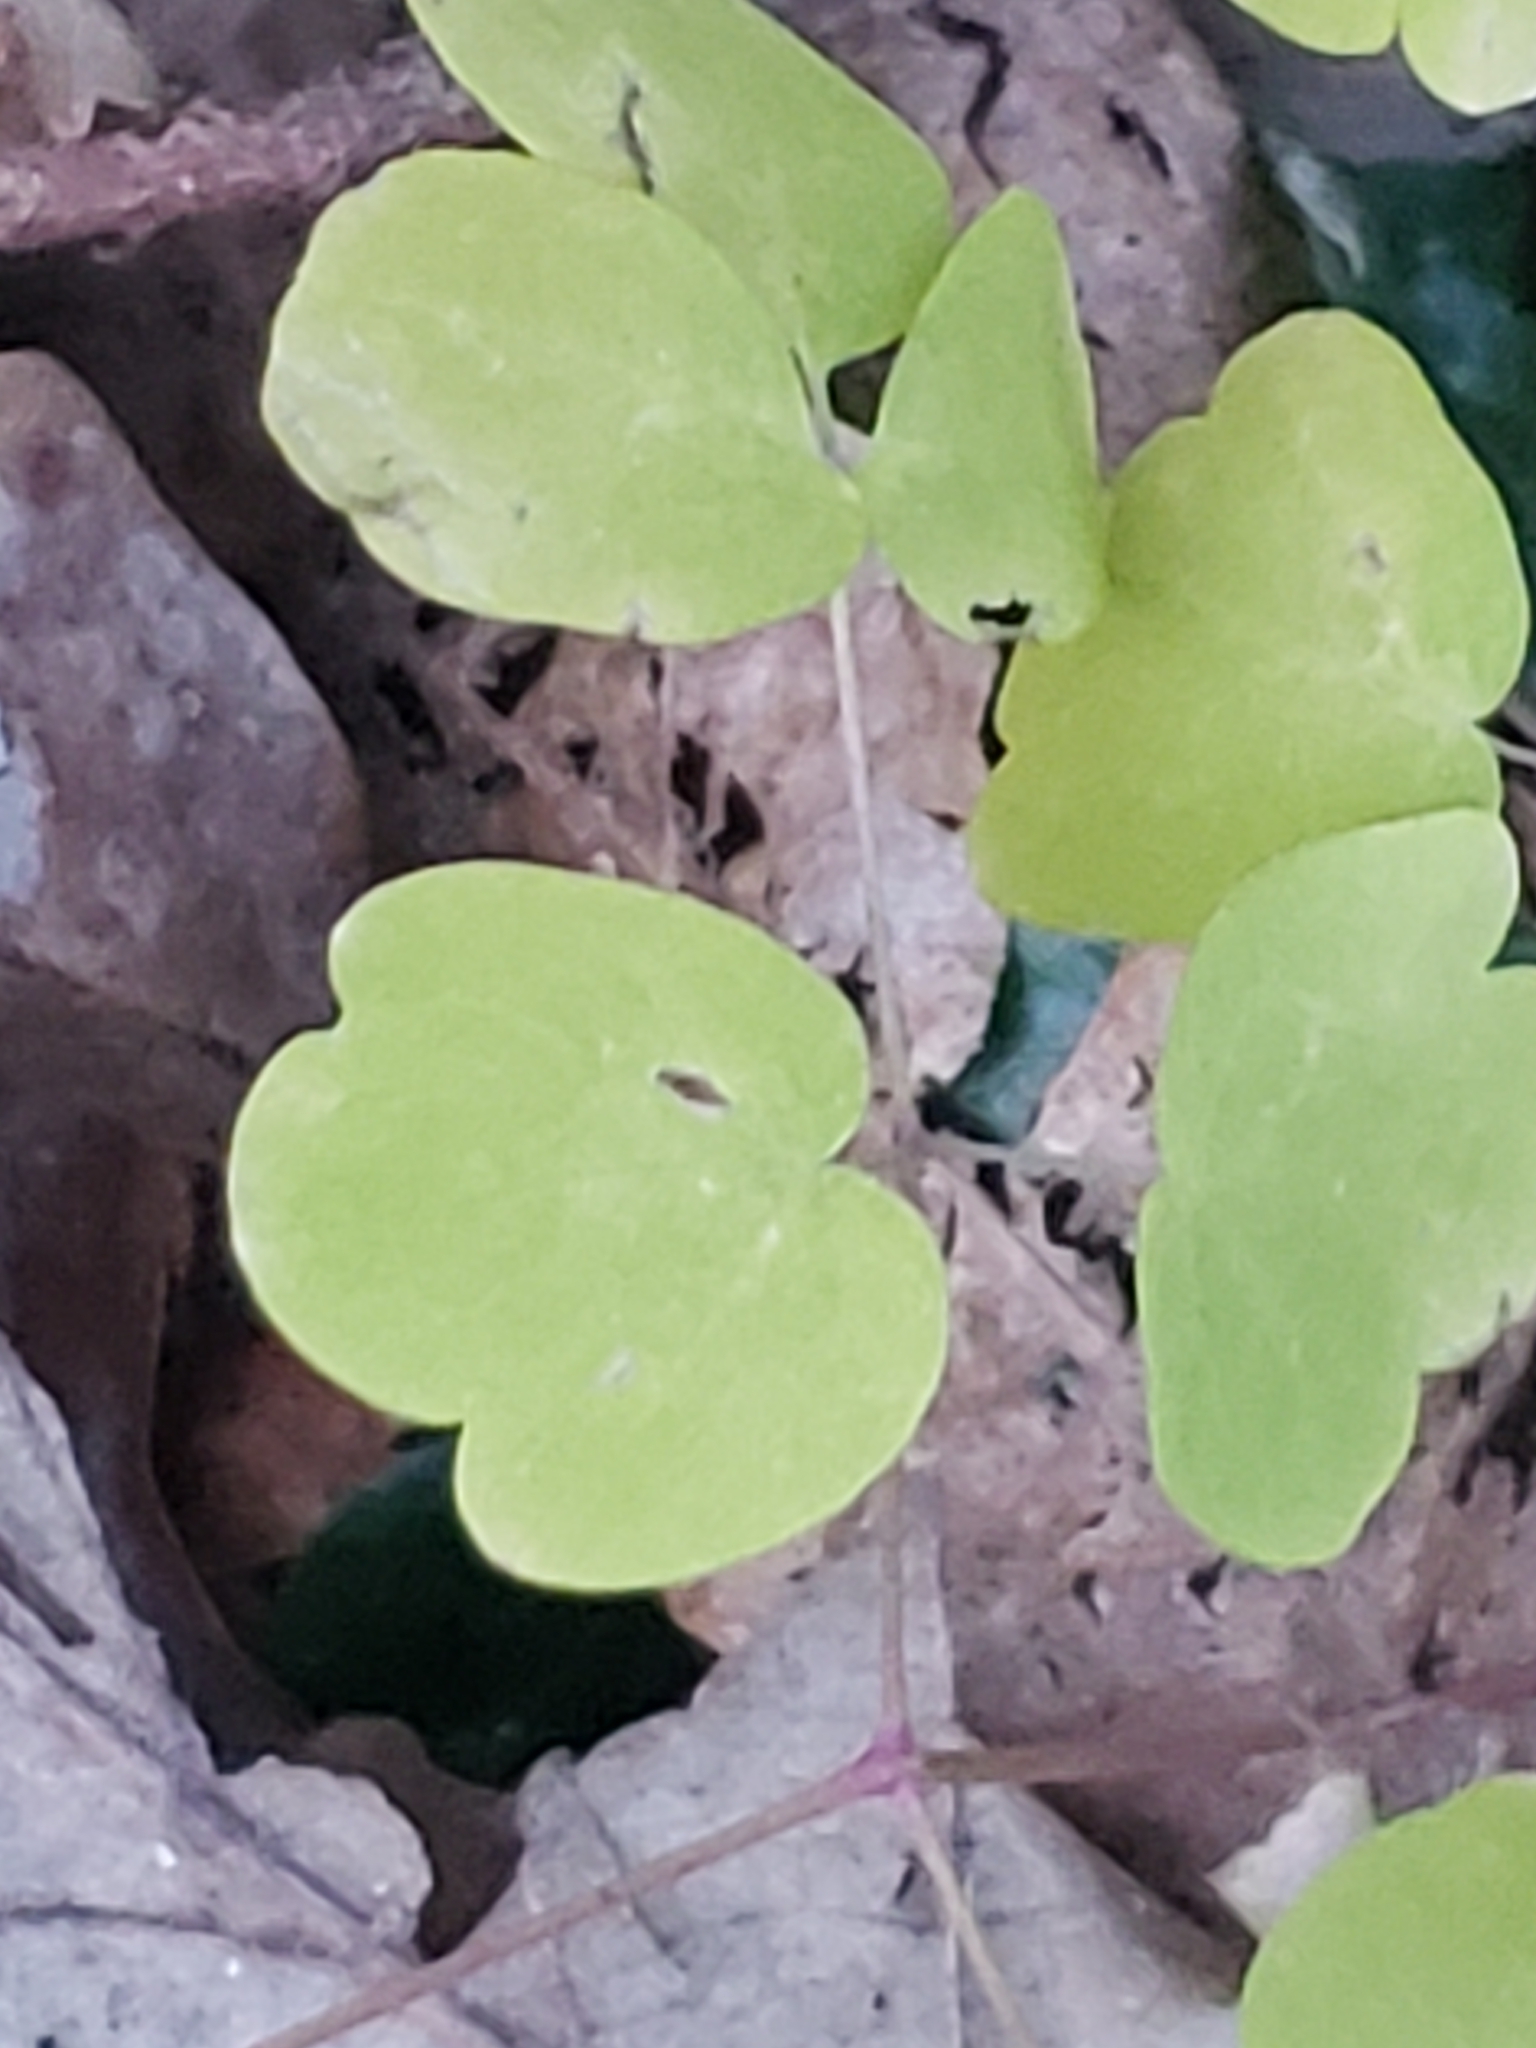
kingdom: Plantae
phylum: Tracheophyta
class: Magnoliopsida
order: Ranunculales
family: Ranunculaceae
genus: Thalictrum
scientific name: Thalictrum thalictroides
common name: Rue-anemone
